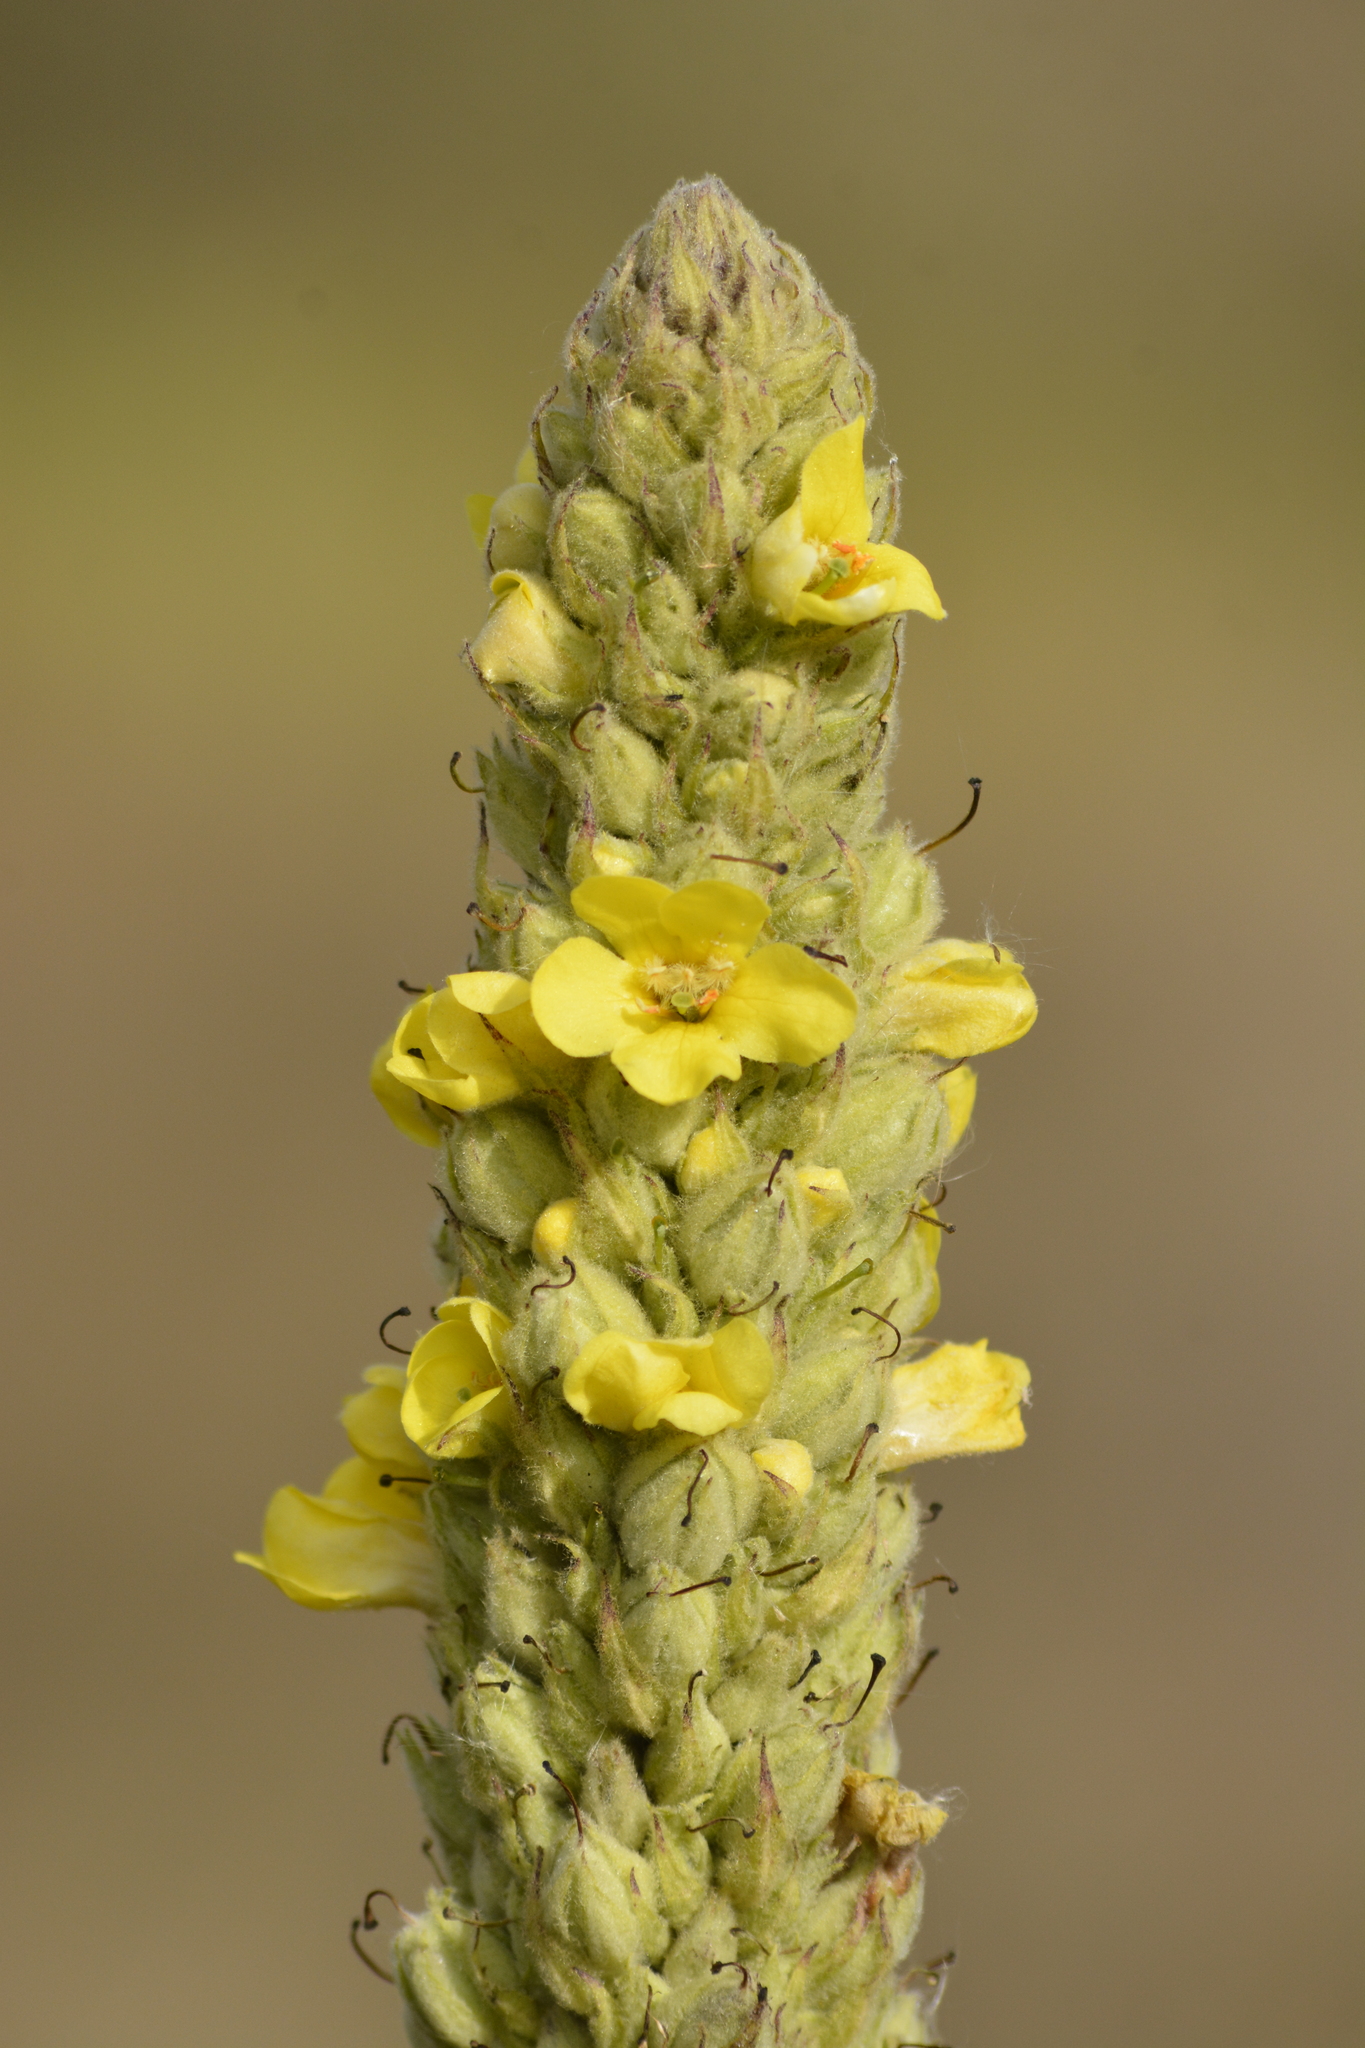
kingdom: Plantae
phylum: Tracheophyta
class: Magnoliopsida
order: Lamiales
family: Scrophulariaceae
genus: Verbascum
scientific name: Verbascum thapsus
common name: Common mullein
